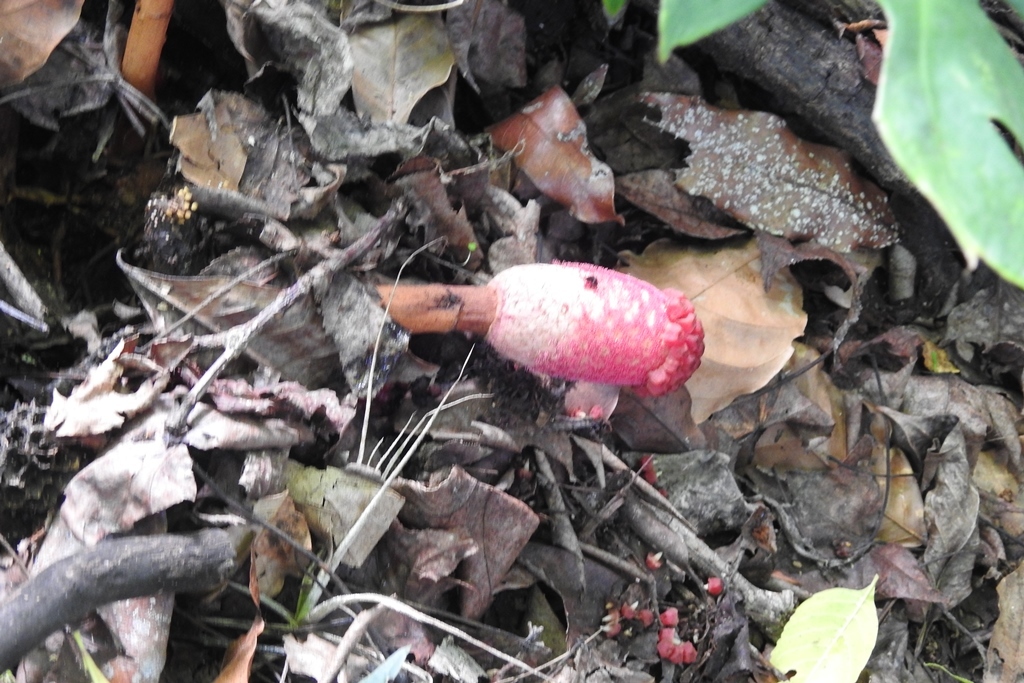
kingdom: Plantae
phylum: Tracheophyta
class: Magnoliopsida
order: Santalales
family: Balanophoraceae
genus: Helosis
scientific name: Helosis cayennensis
